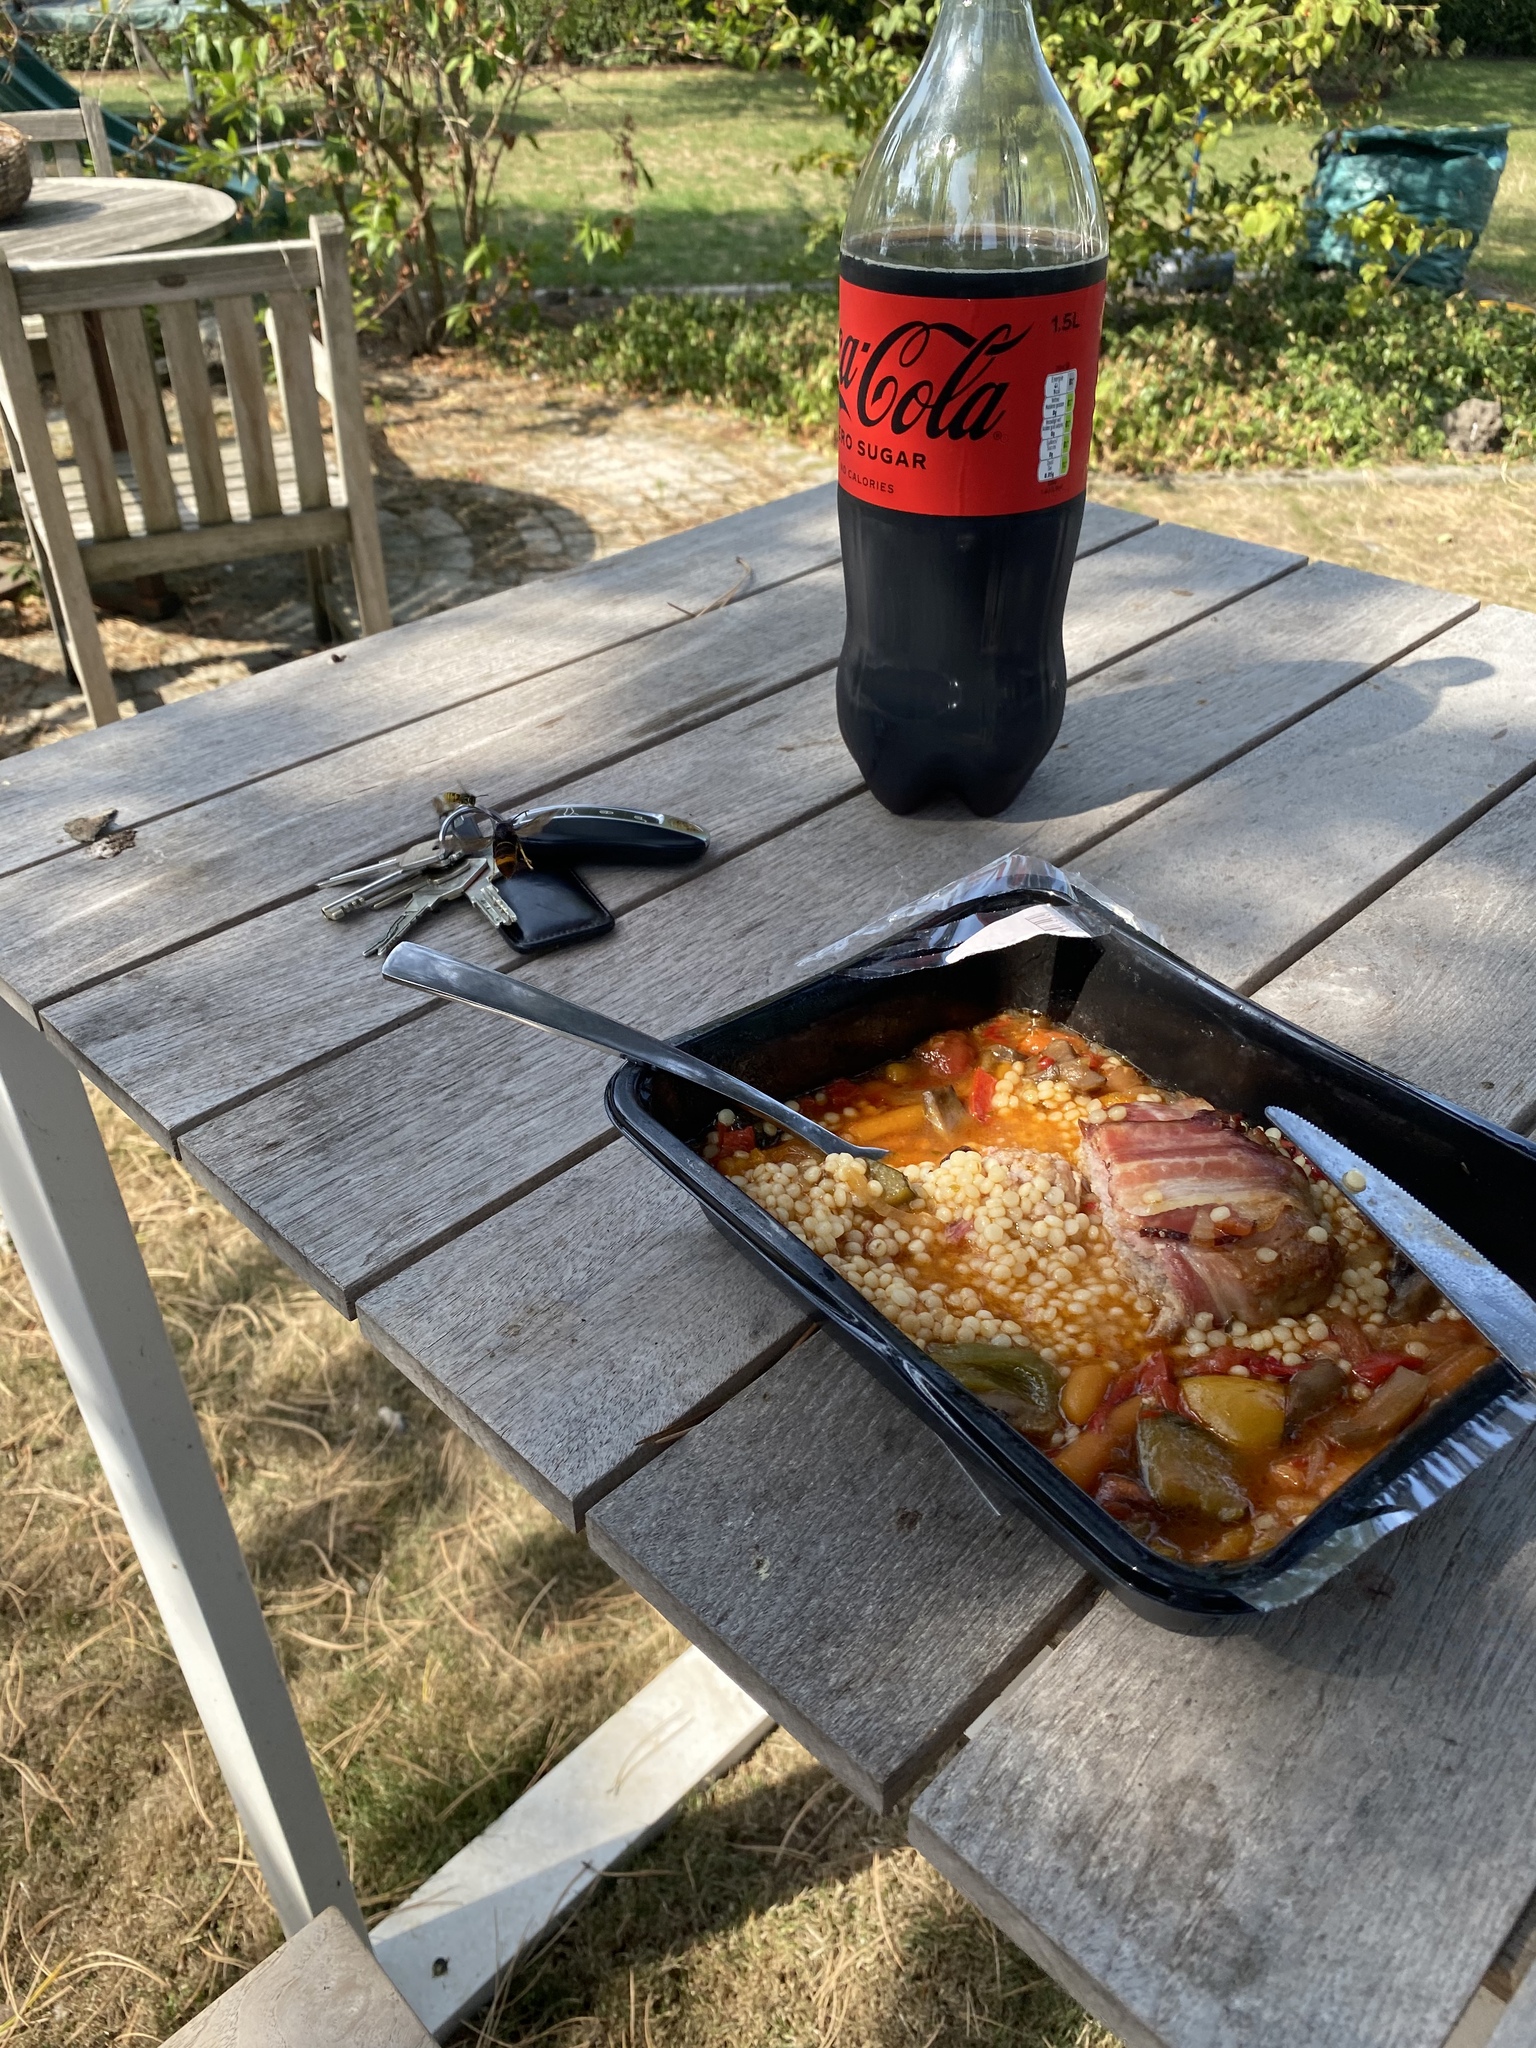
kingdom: Animalia
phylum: Arthropoda
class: Insecta
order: Hymenoptera
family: Vespidae
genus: Vespa
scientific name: Vespa velutina
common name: Asian hornet
